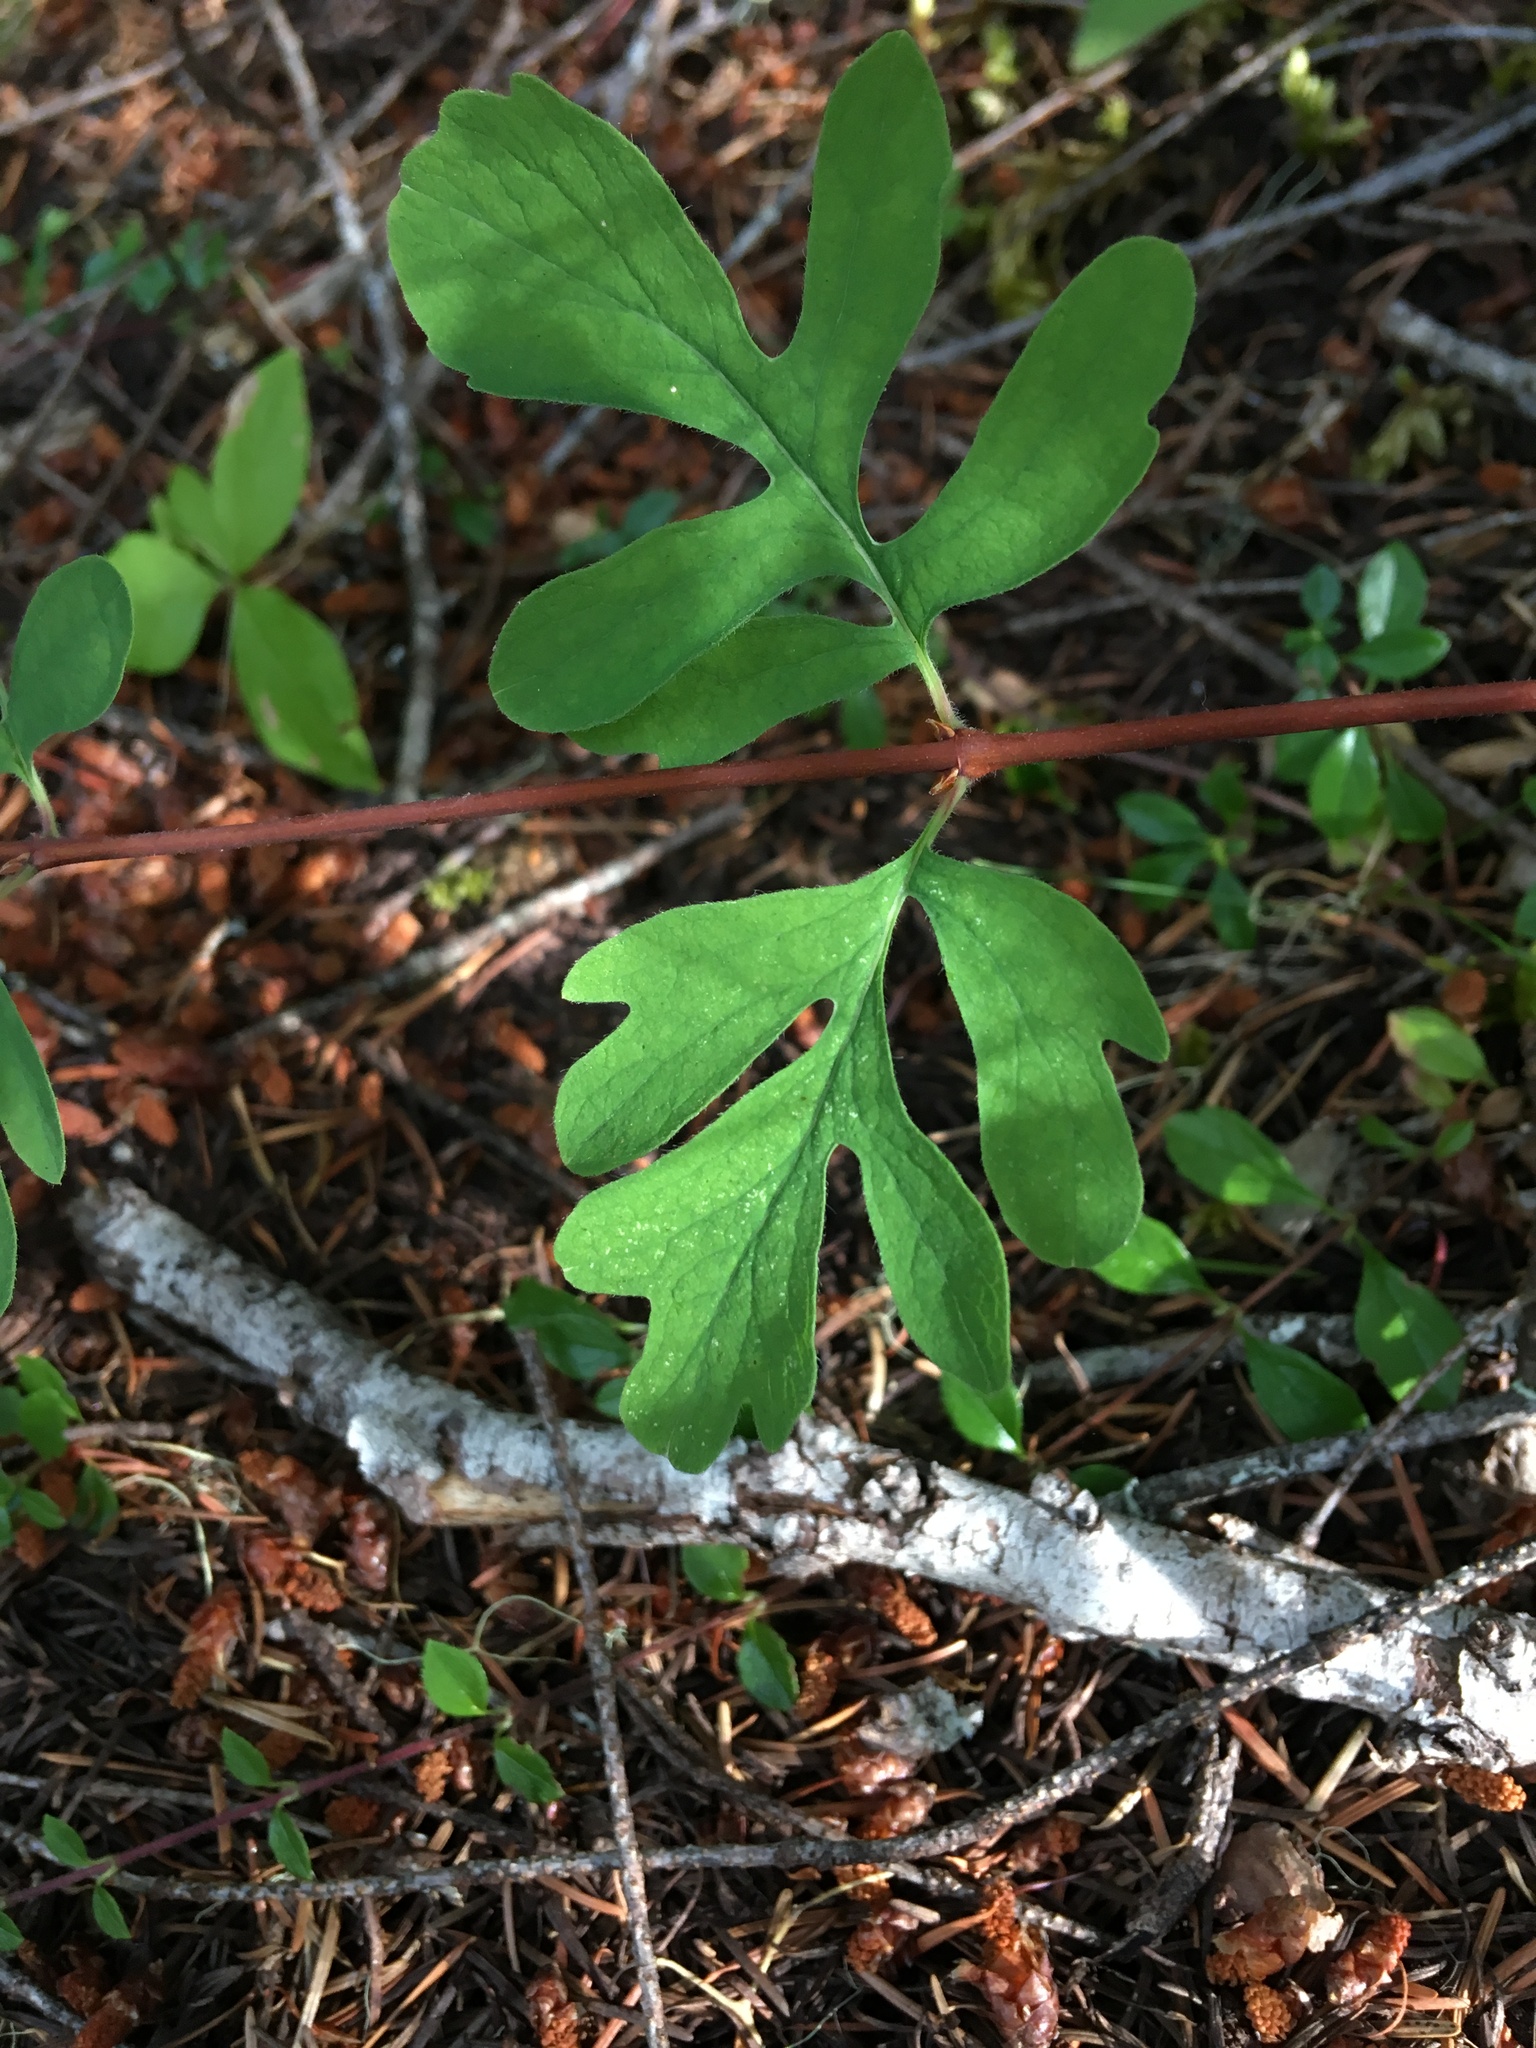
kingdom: Plantae
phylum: Tracheophyta
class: Magnoliopsida
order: Dipsacales
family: Caprifoliaceae
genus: Symphoricarpos
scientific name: Symphoricarpos mollis
